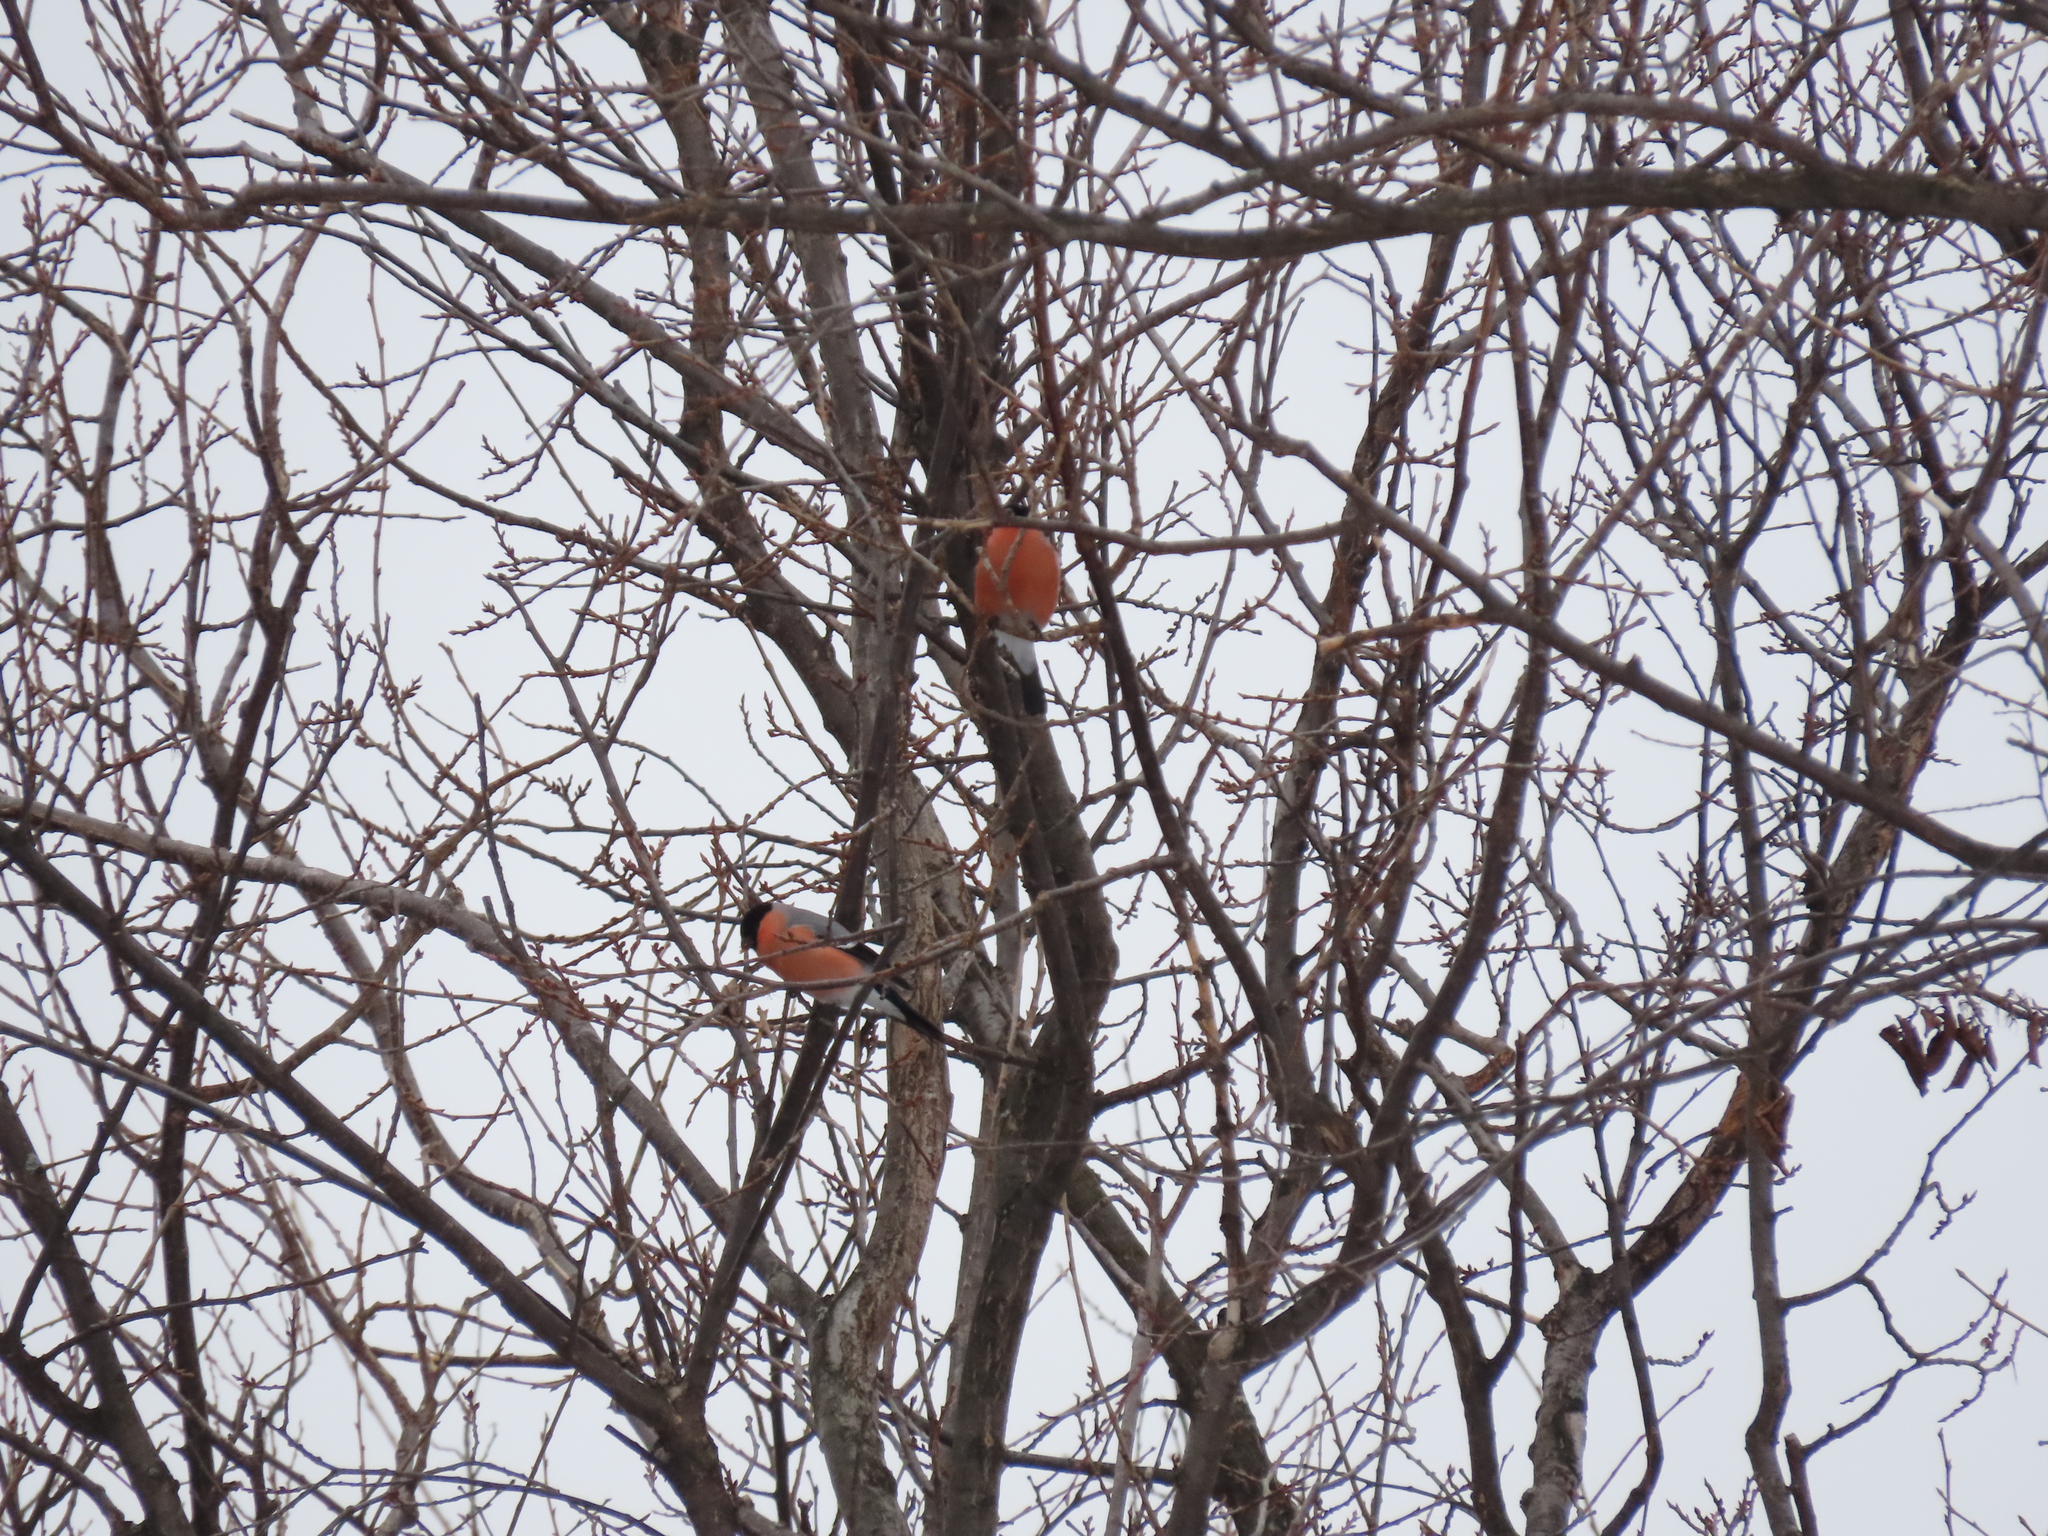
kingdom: Animalia
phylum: Chordata
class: Aves
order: Passeriformes
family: Fringillidae
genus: Pyrrhula
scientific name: Pyrrhula pyrrhula
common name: Eurasian bullfinch
